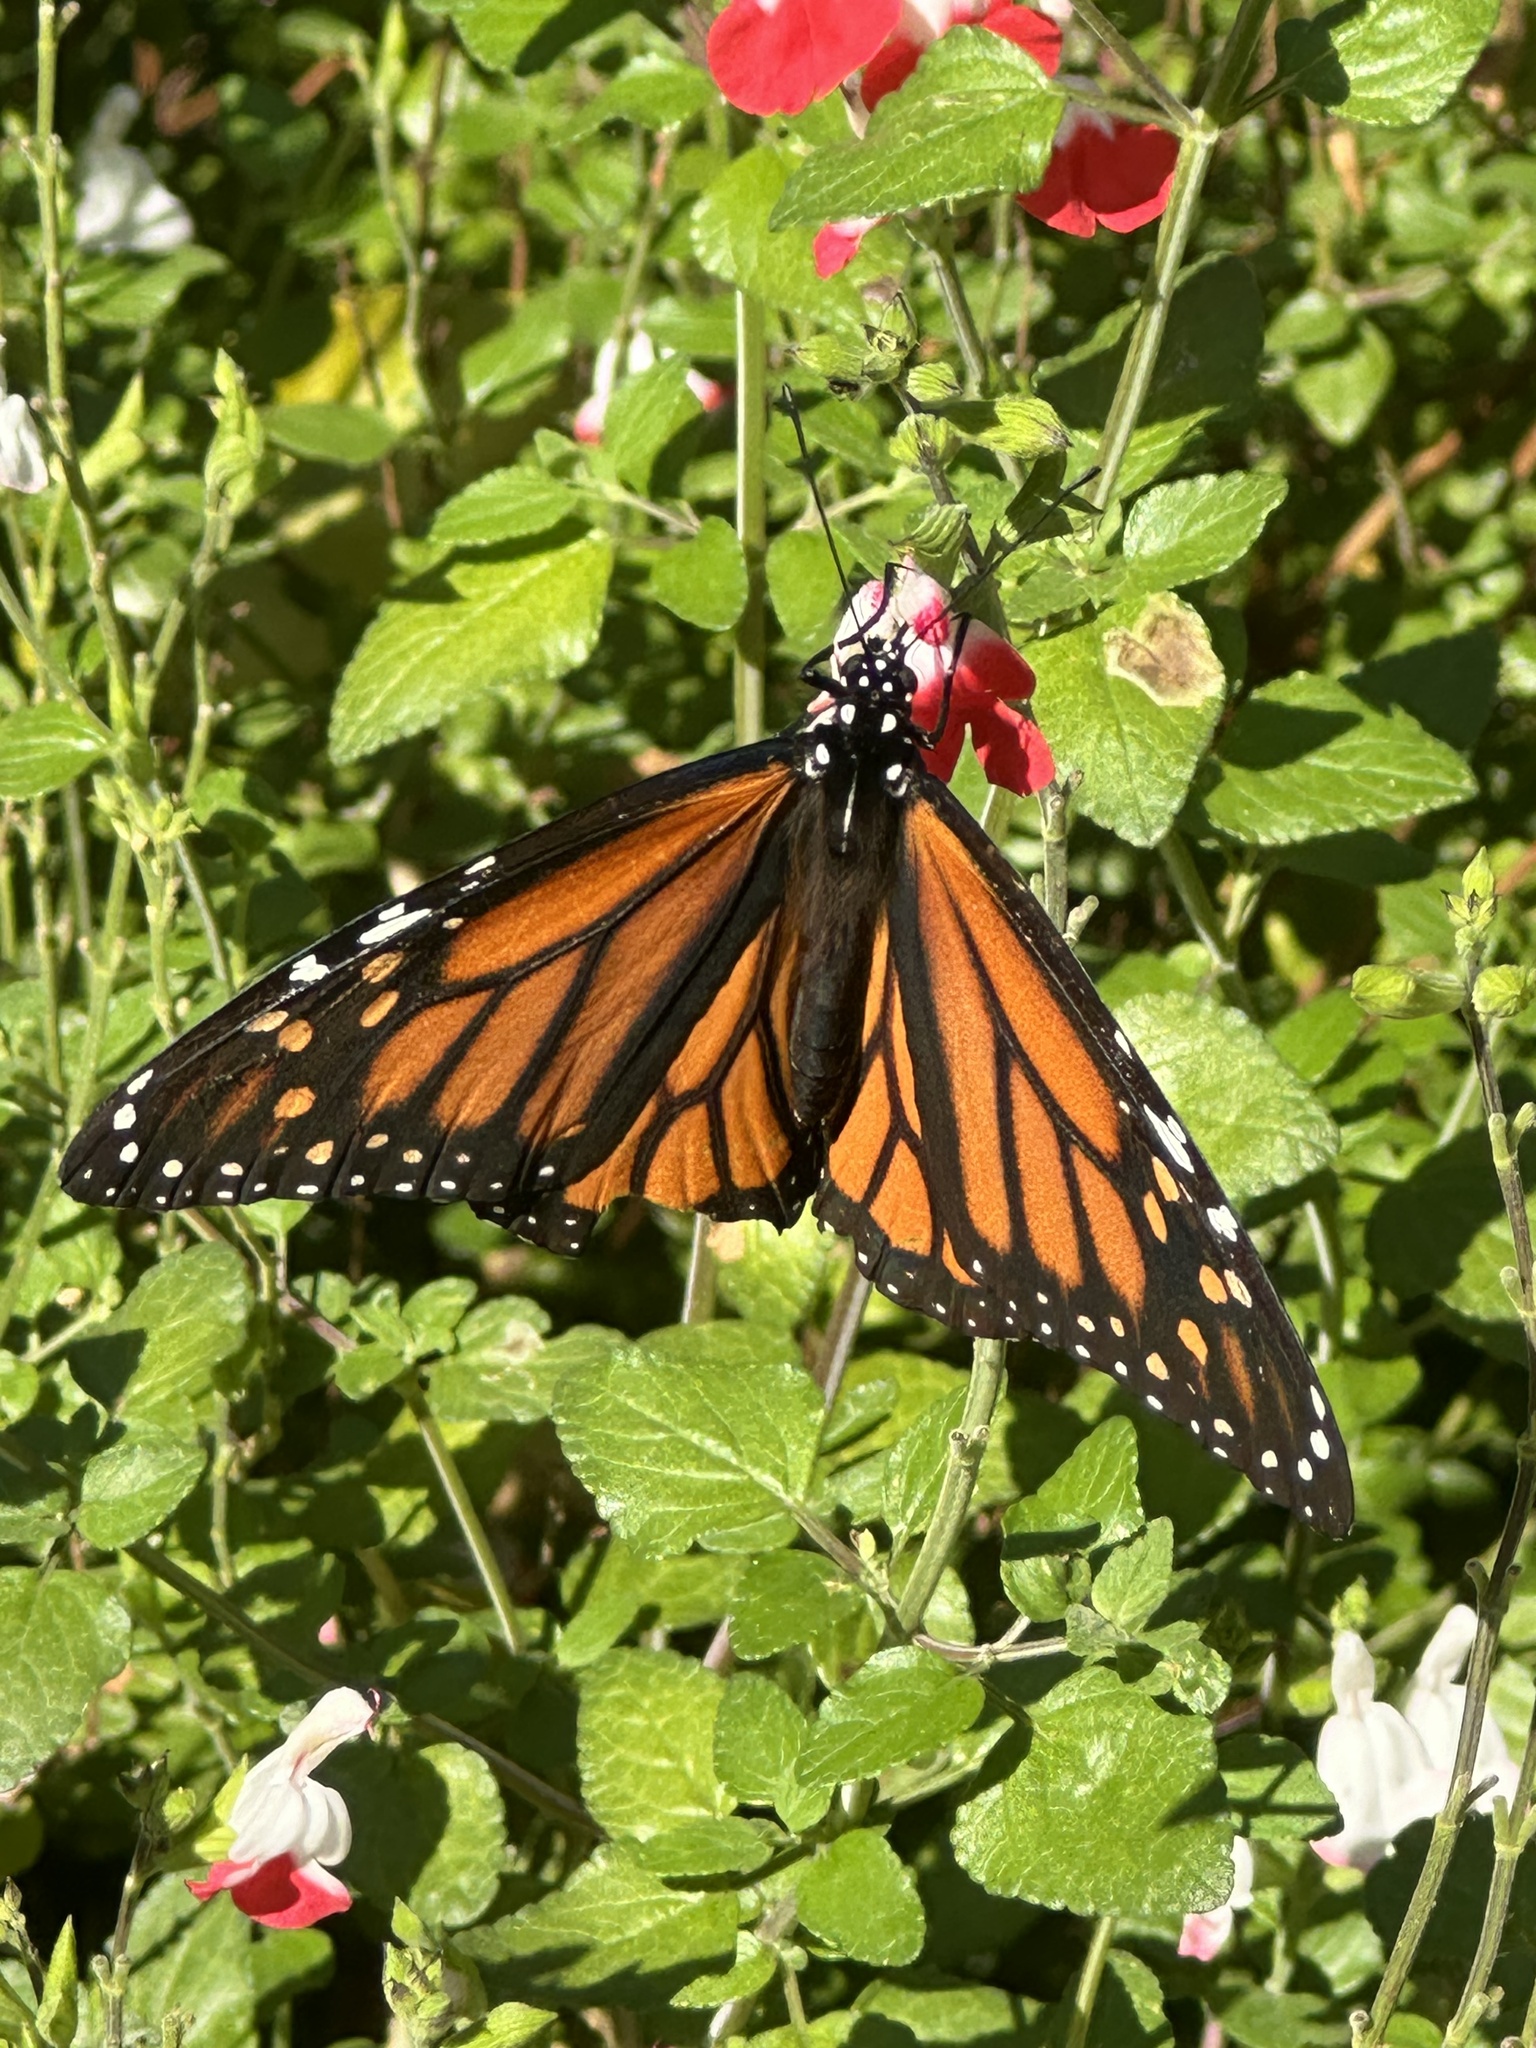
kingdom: Animalia
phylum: Arthropoda
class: Insecta
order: Lepidoptera
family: Nymphalidae
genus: Danaus
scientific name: Danaus plexippus
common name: Monarch
